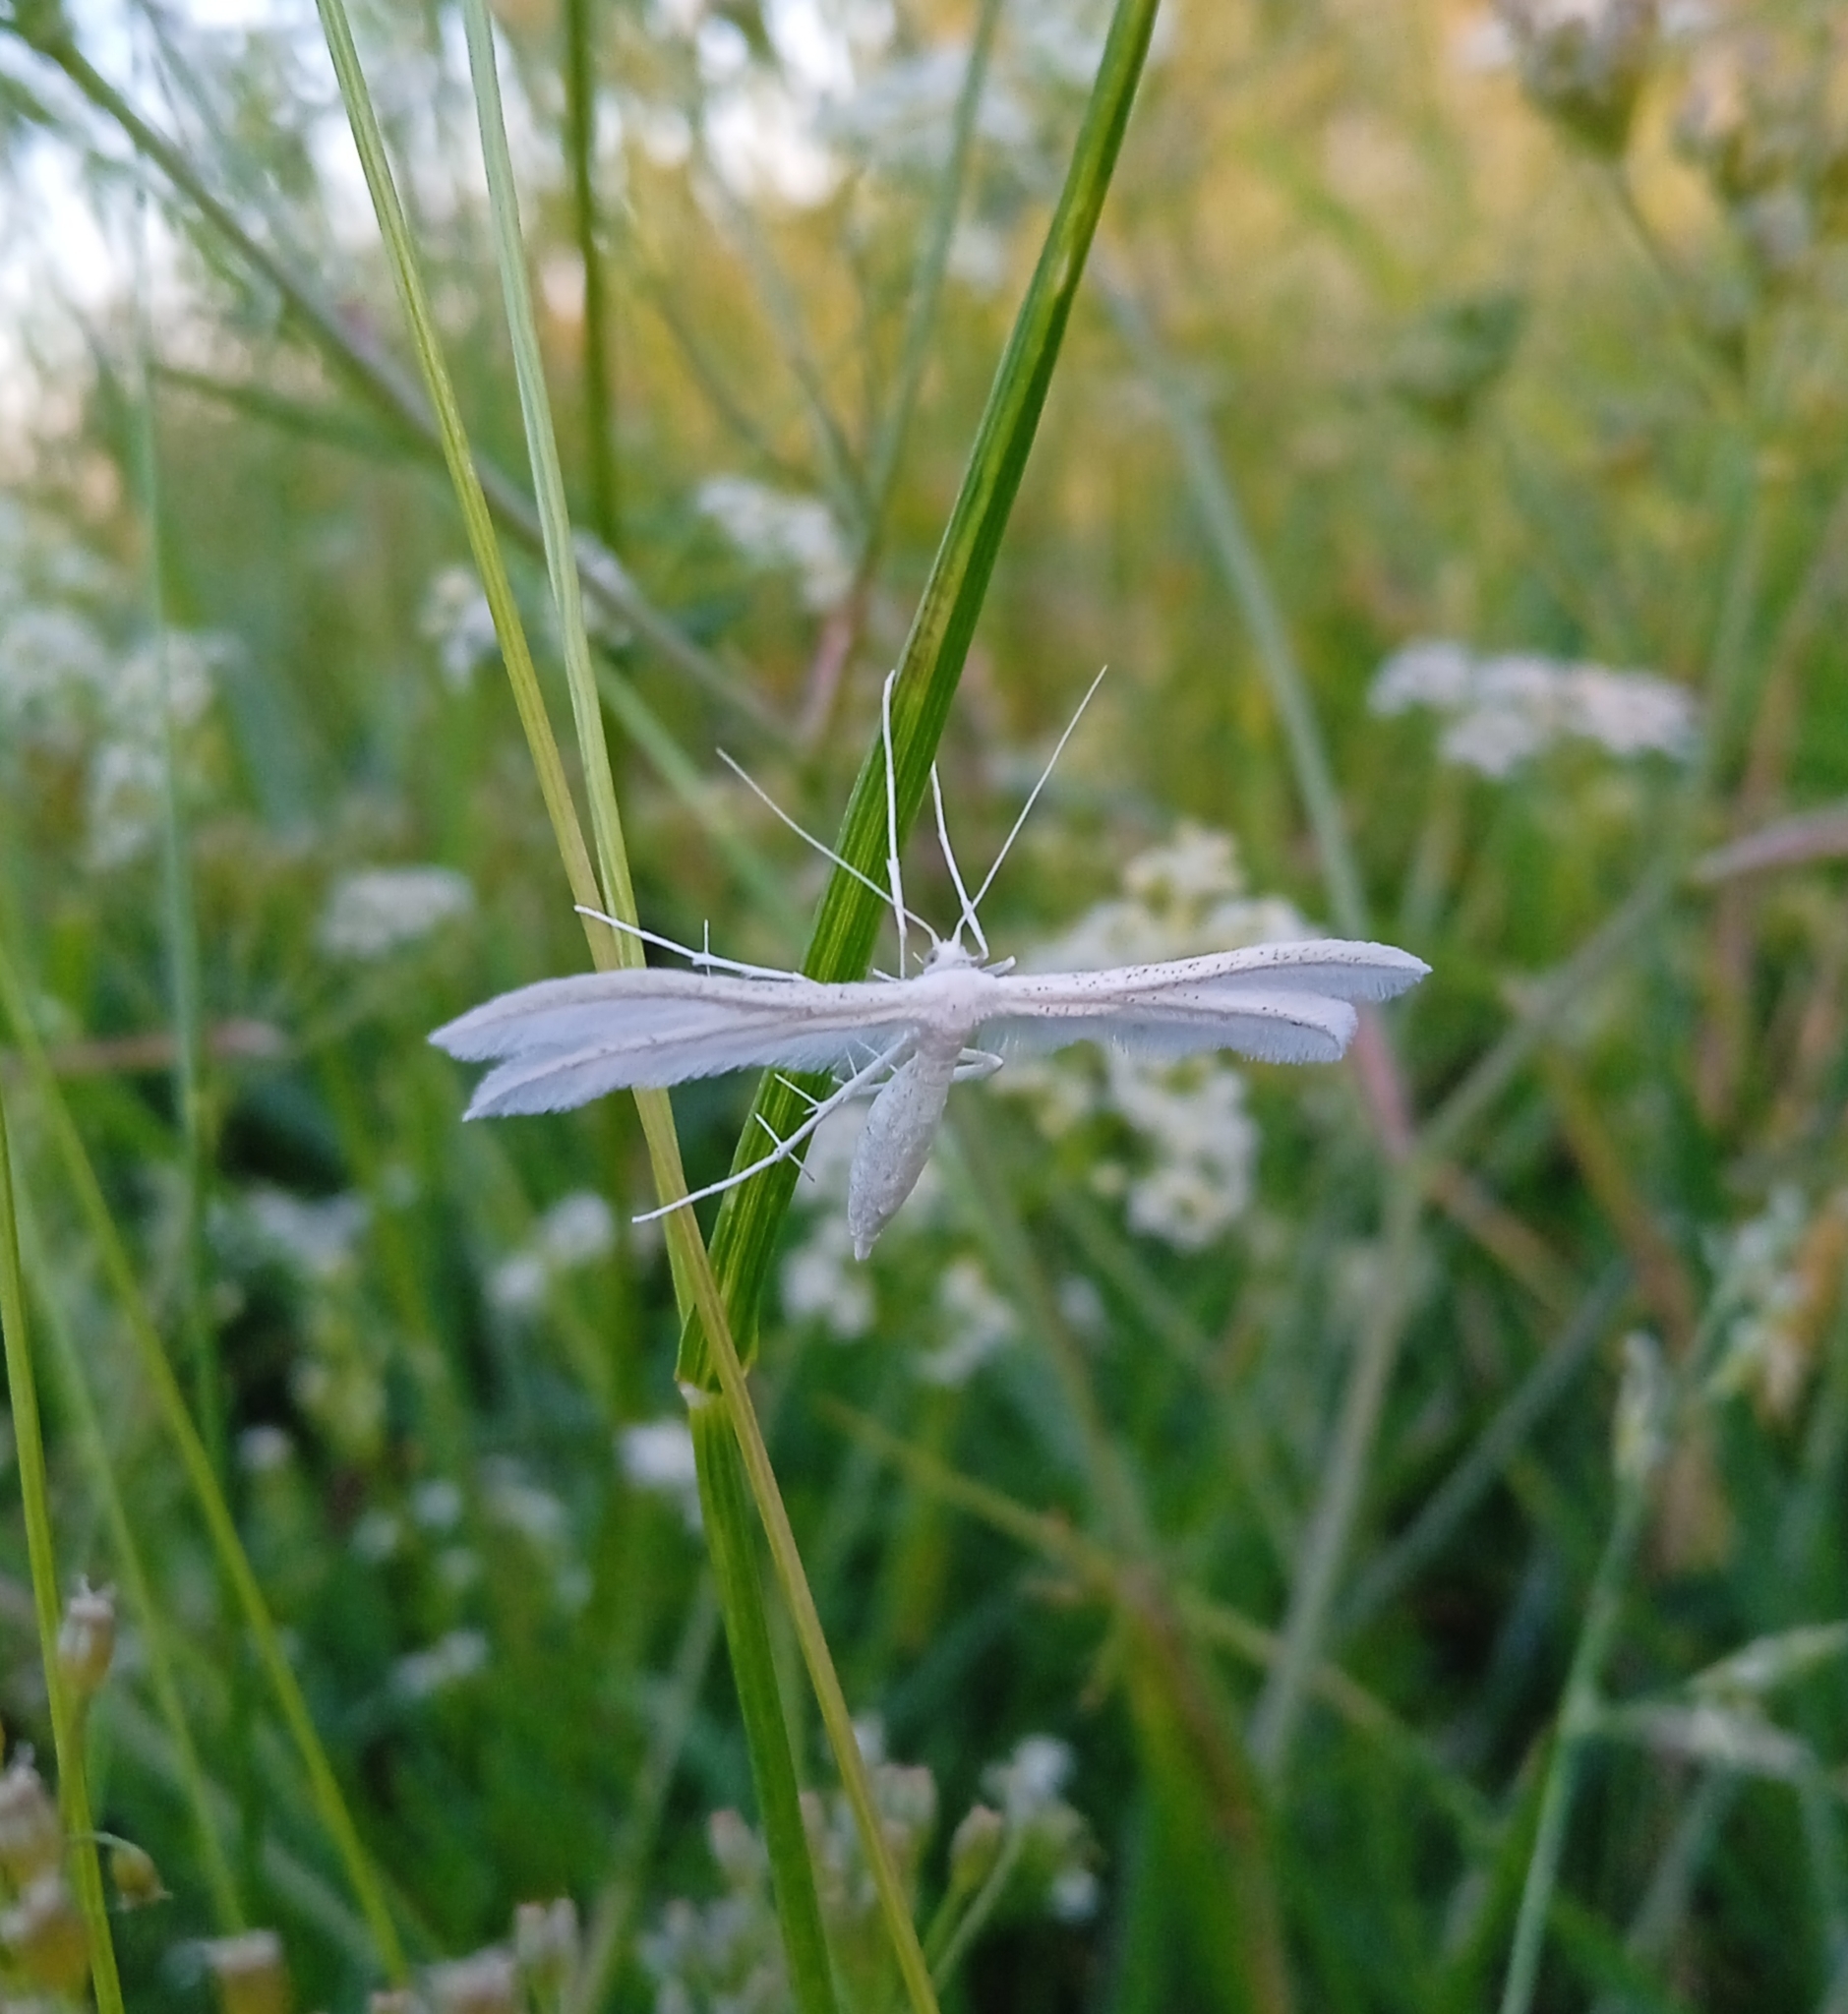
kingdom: Animalia
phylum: Arthropoda
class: Insecta
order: Lepidoptera
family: Pterophoridae
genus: Pterophorus
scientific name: Pterophorus pentadactyla
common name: White plume moth
